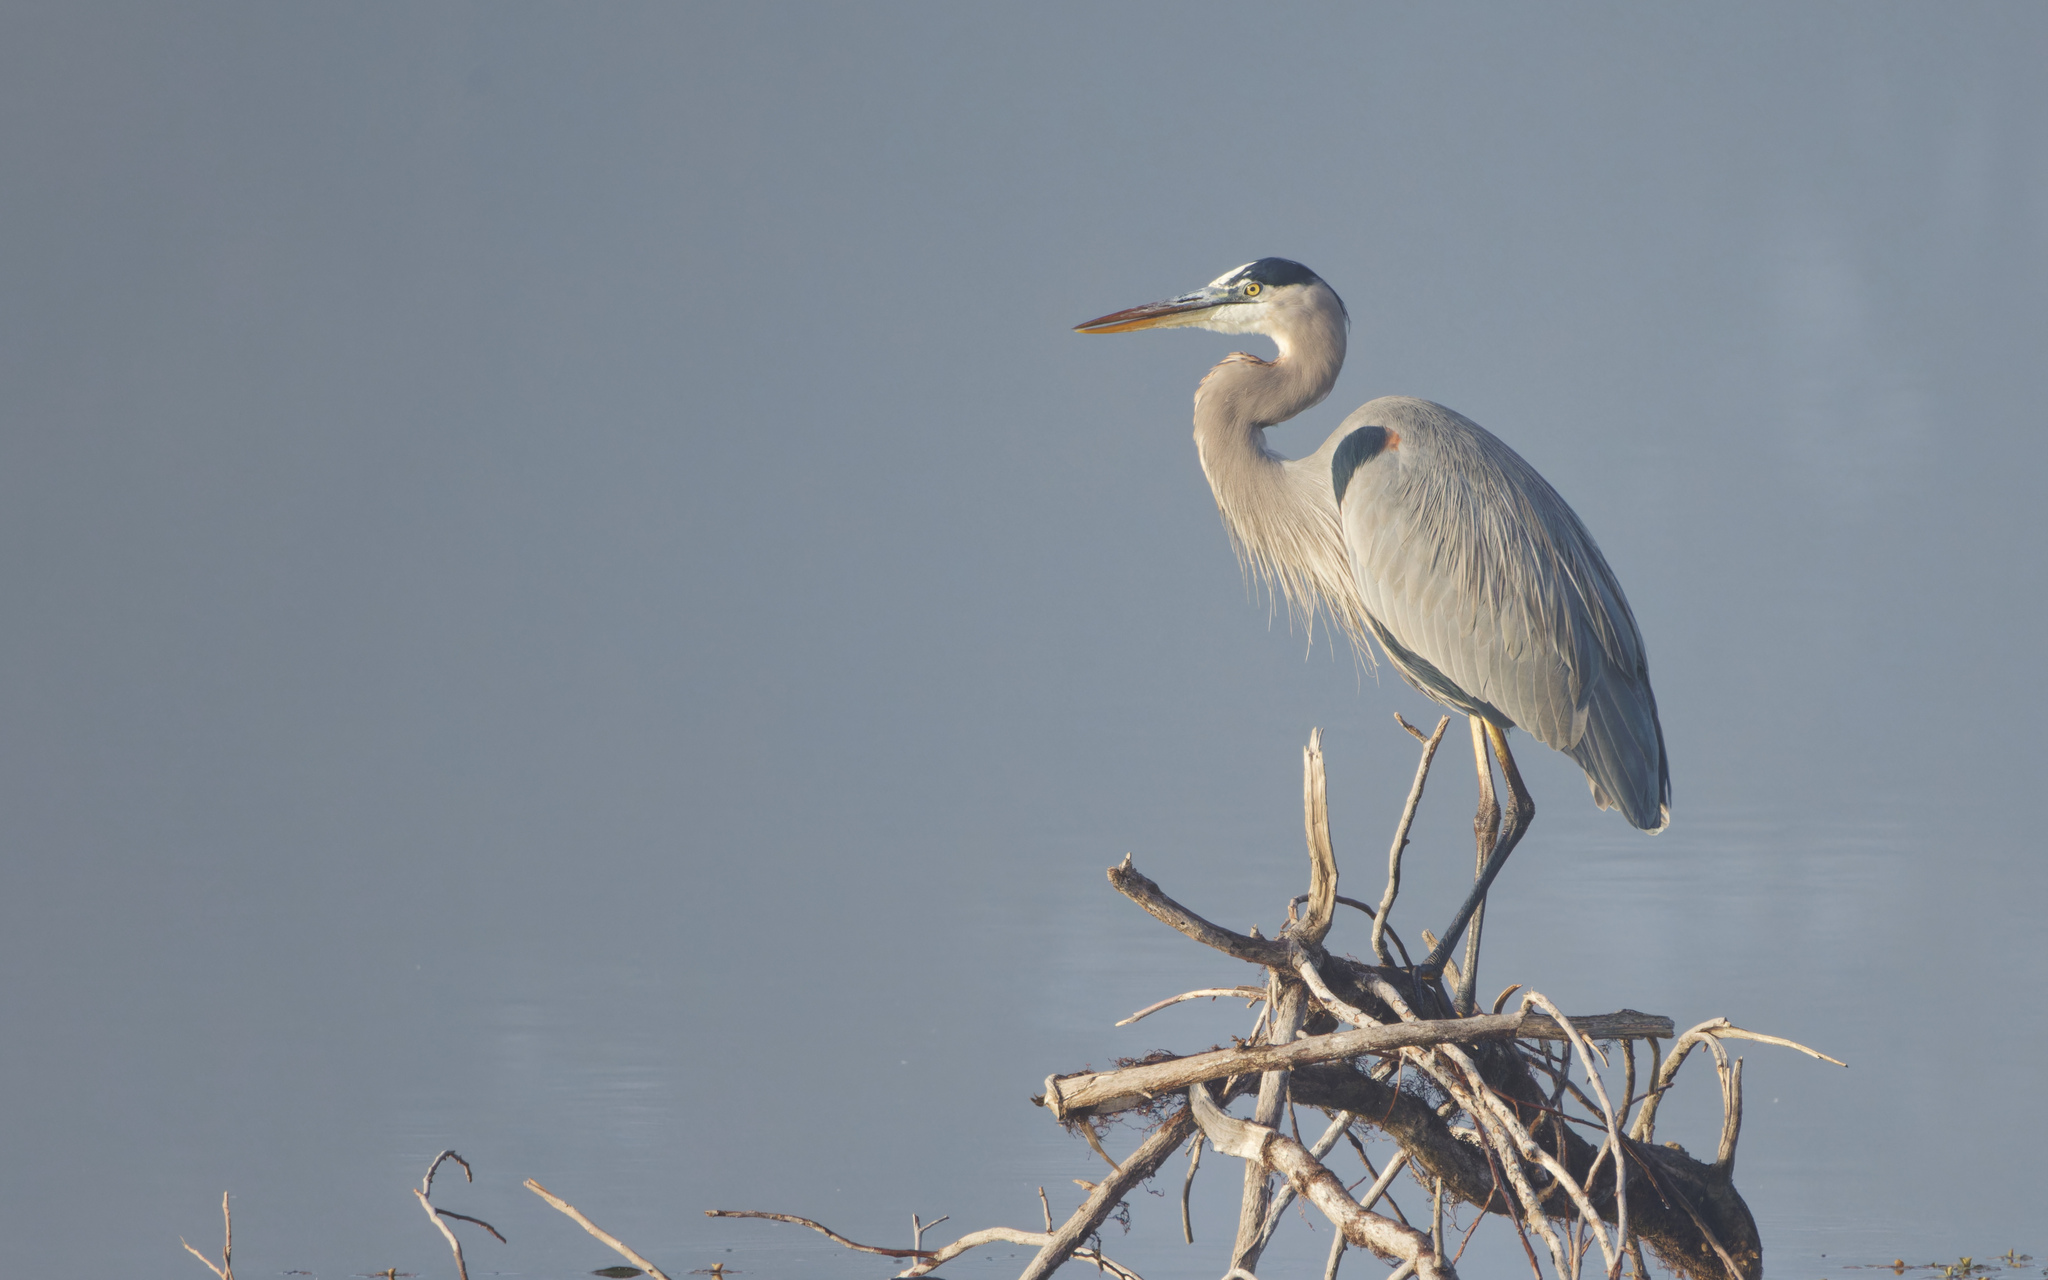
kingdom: Animalia
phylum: Chordata
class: Aves
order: Pelecaniformes
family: Ardeidae
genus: Ardea
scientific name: Ardea herodias
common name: Great blue heron
